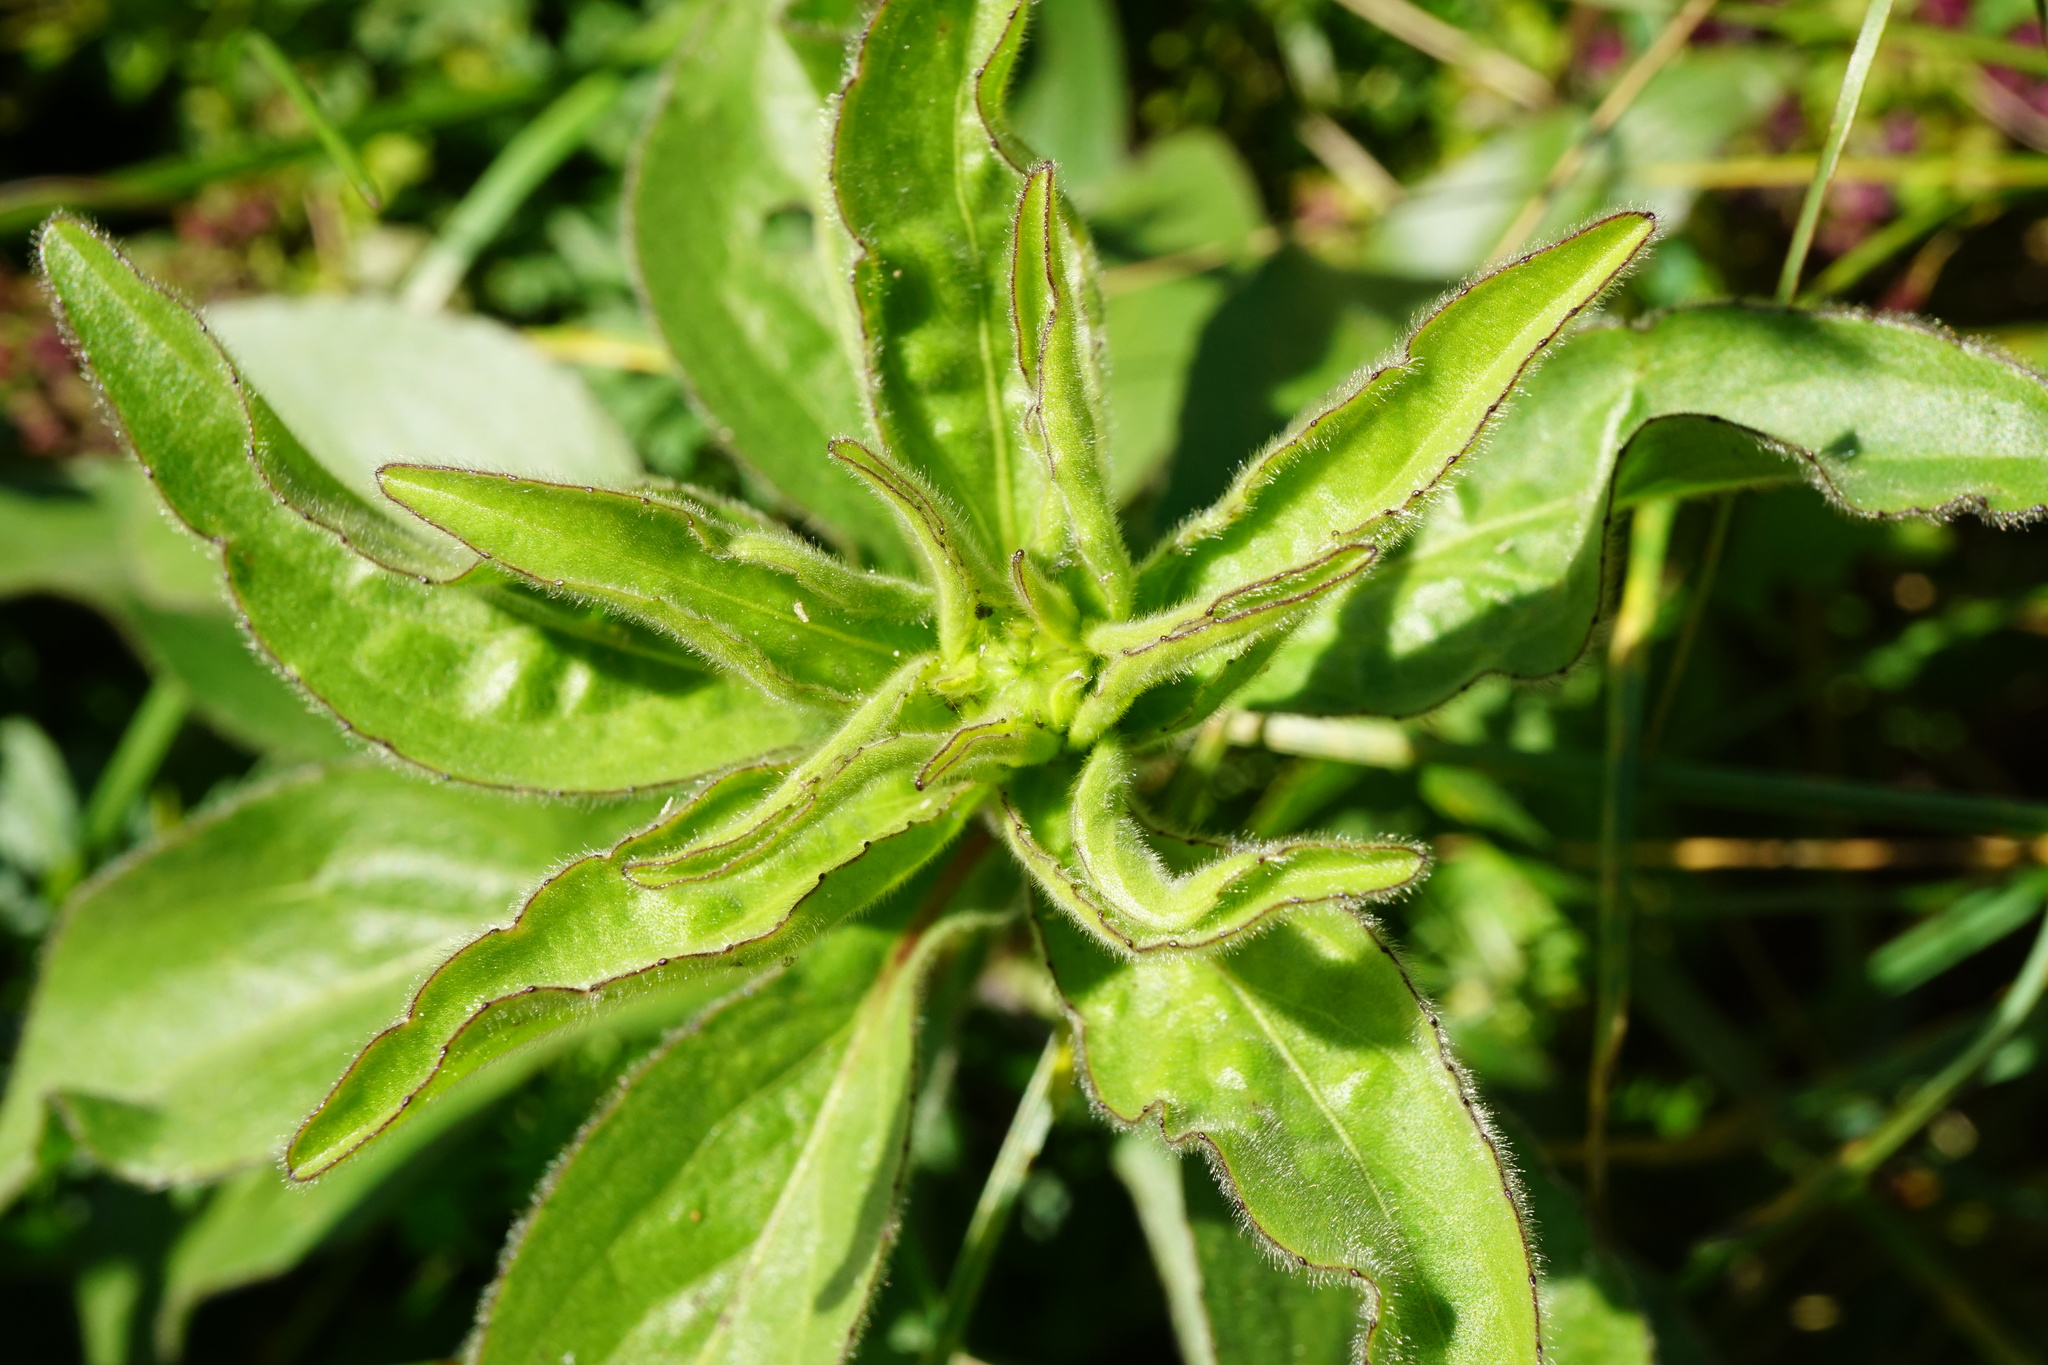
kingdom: Plantae
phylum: Tracheophyta
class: Magnoliopsida
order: Asterales
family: Asteraceae
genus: Buphthalmum
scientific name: Buphthalmum salicifolium
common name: Willow-leaved yellow-oxeye
